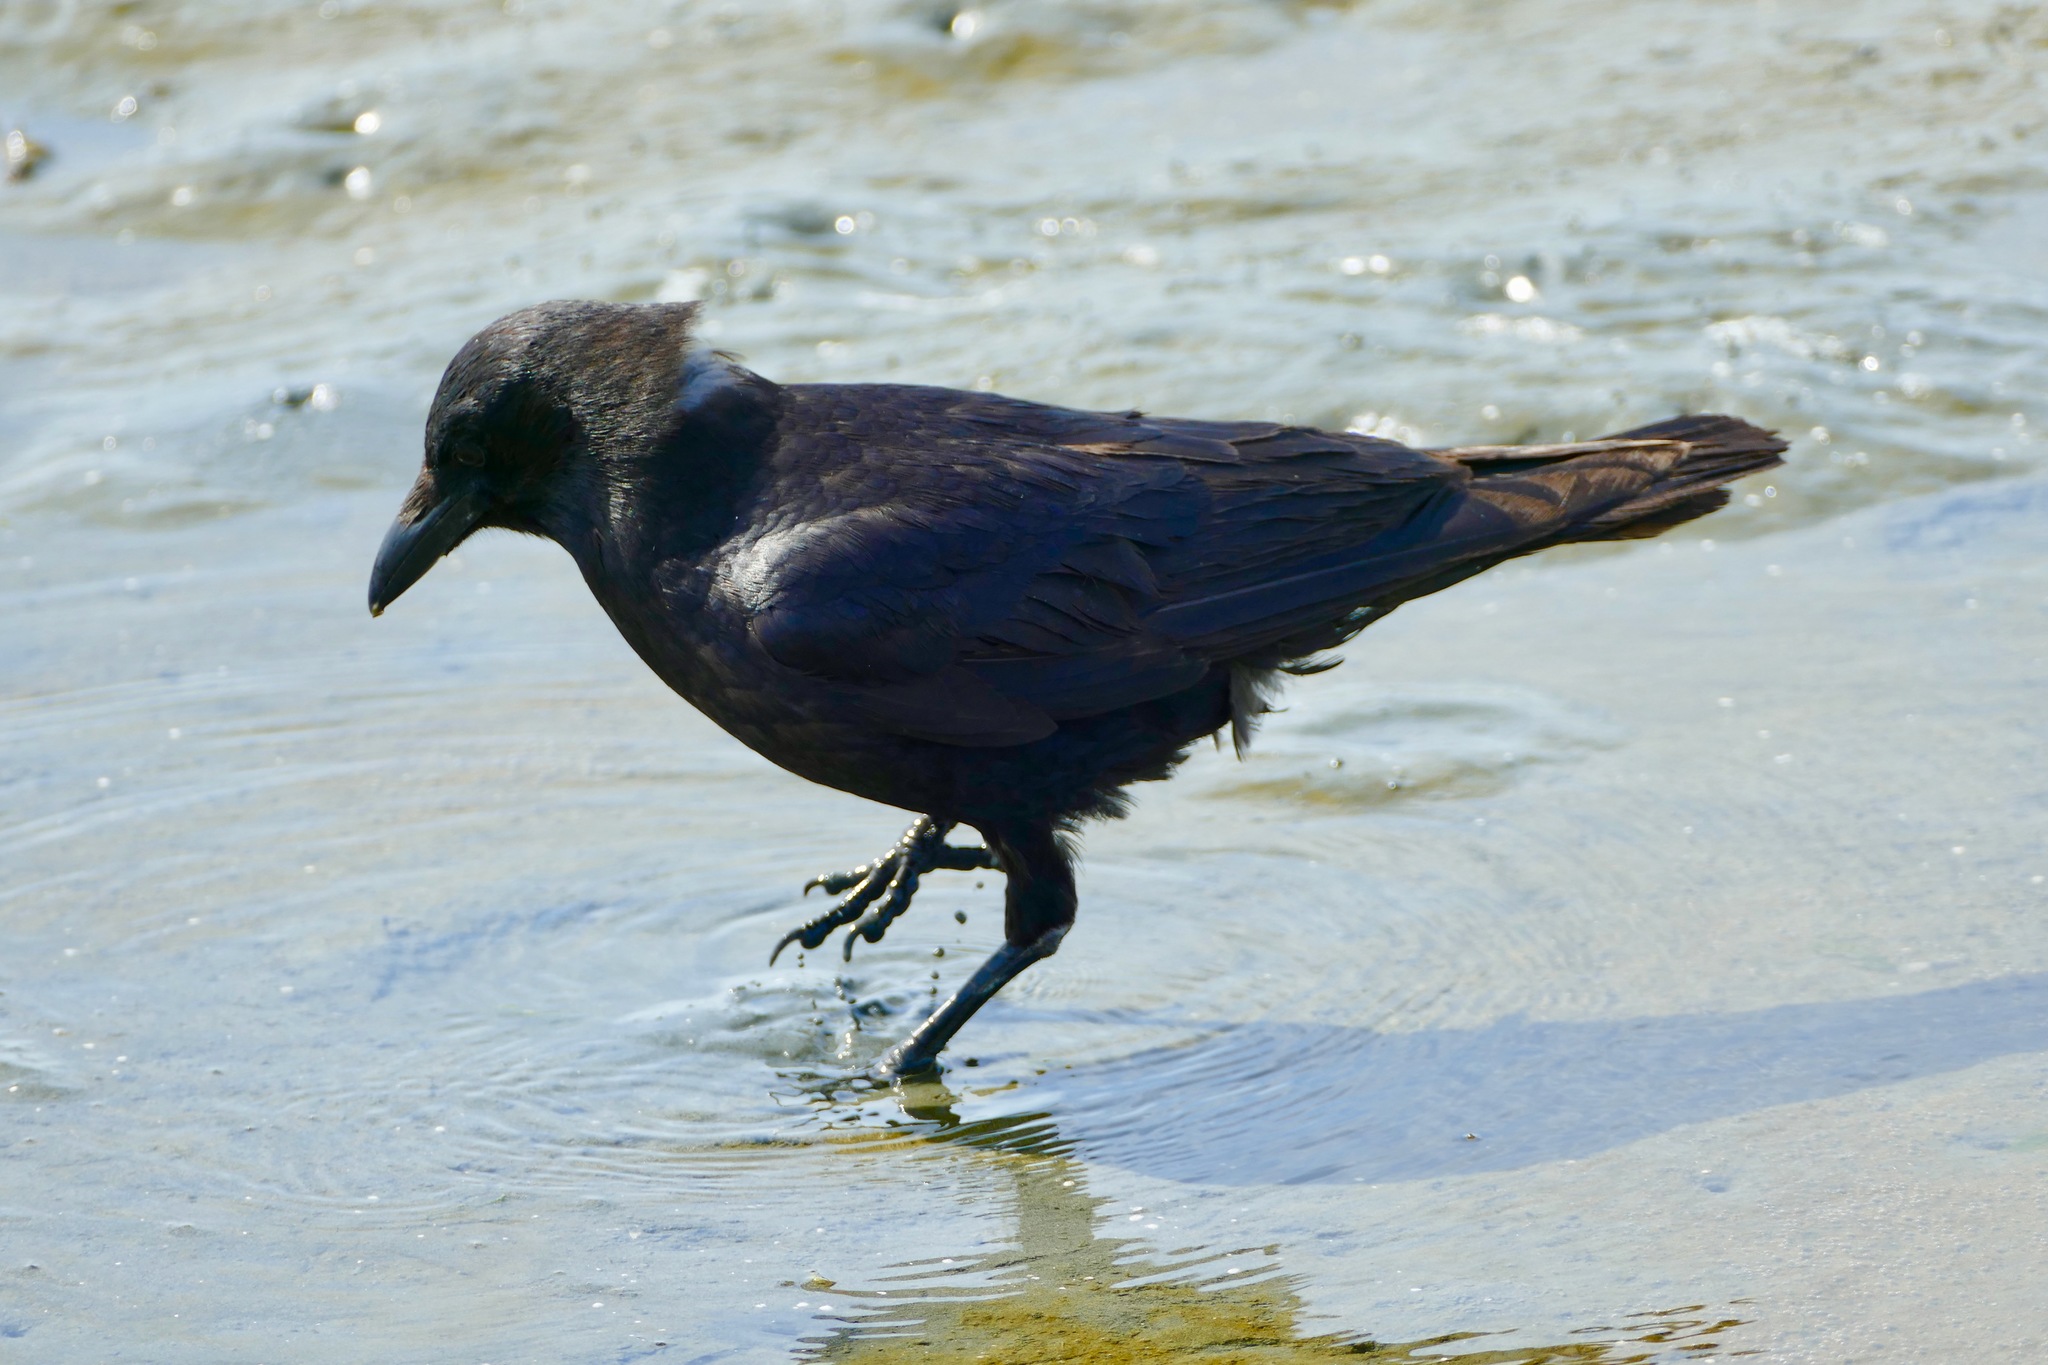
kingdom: Animalia
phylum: Chordata
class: Aves
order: Passeriformes
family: Corvidae
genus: Corvus
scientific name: Corvus brachyrhynchos
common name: American crow
